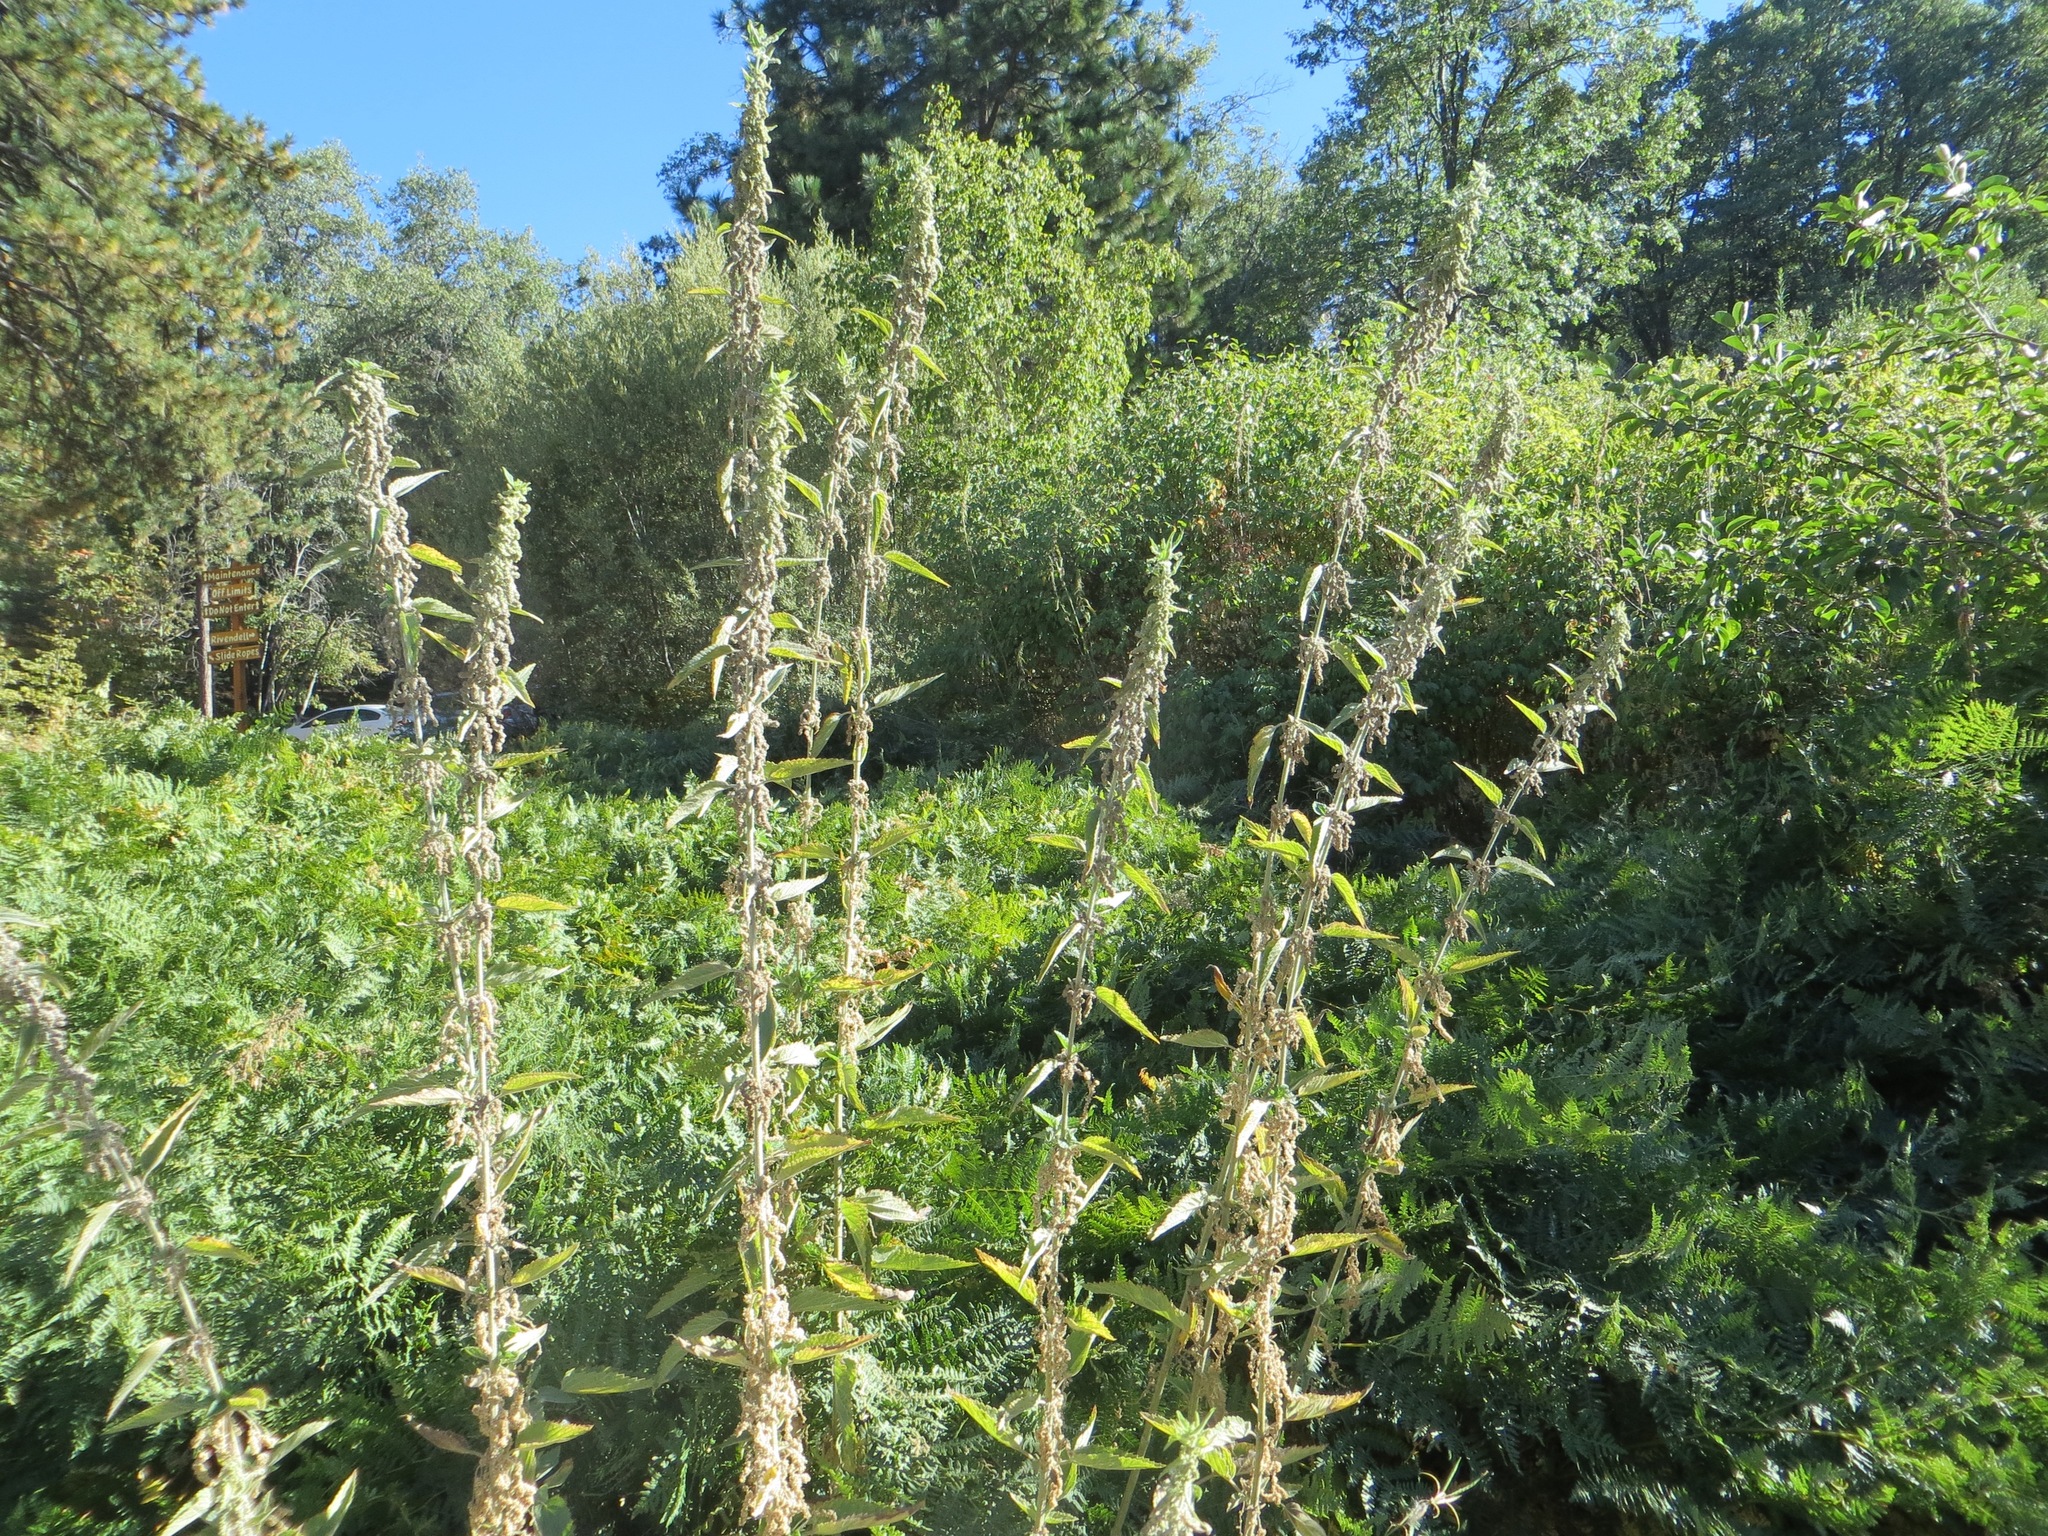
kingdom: Plantae
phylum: Tracheophyta
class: Magnoliopsida
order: Rosales
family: Urticaceae
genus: Urtica
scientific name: Urtica dioica
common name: Common nettle
